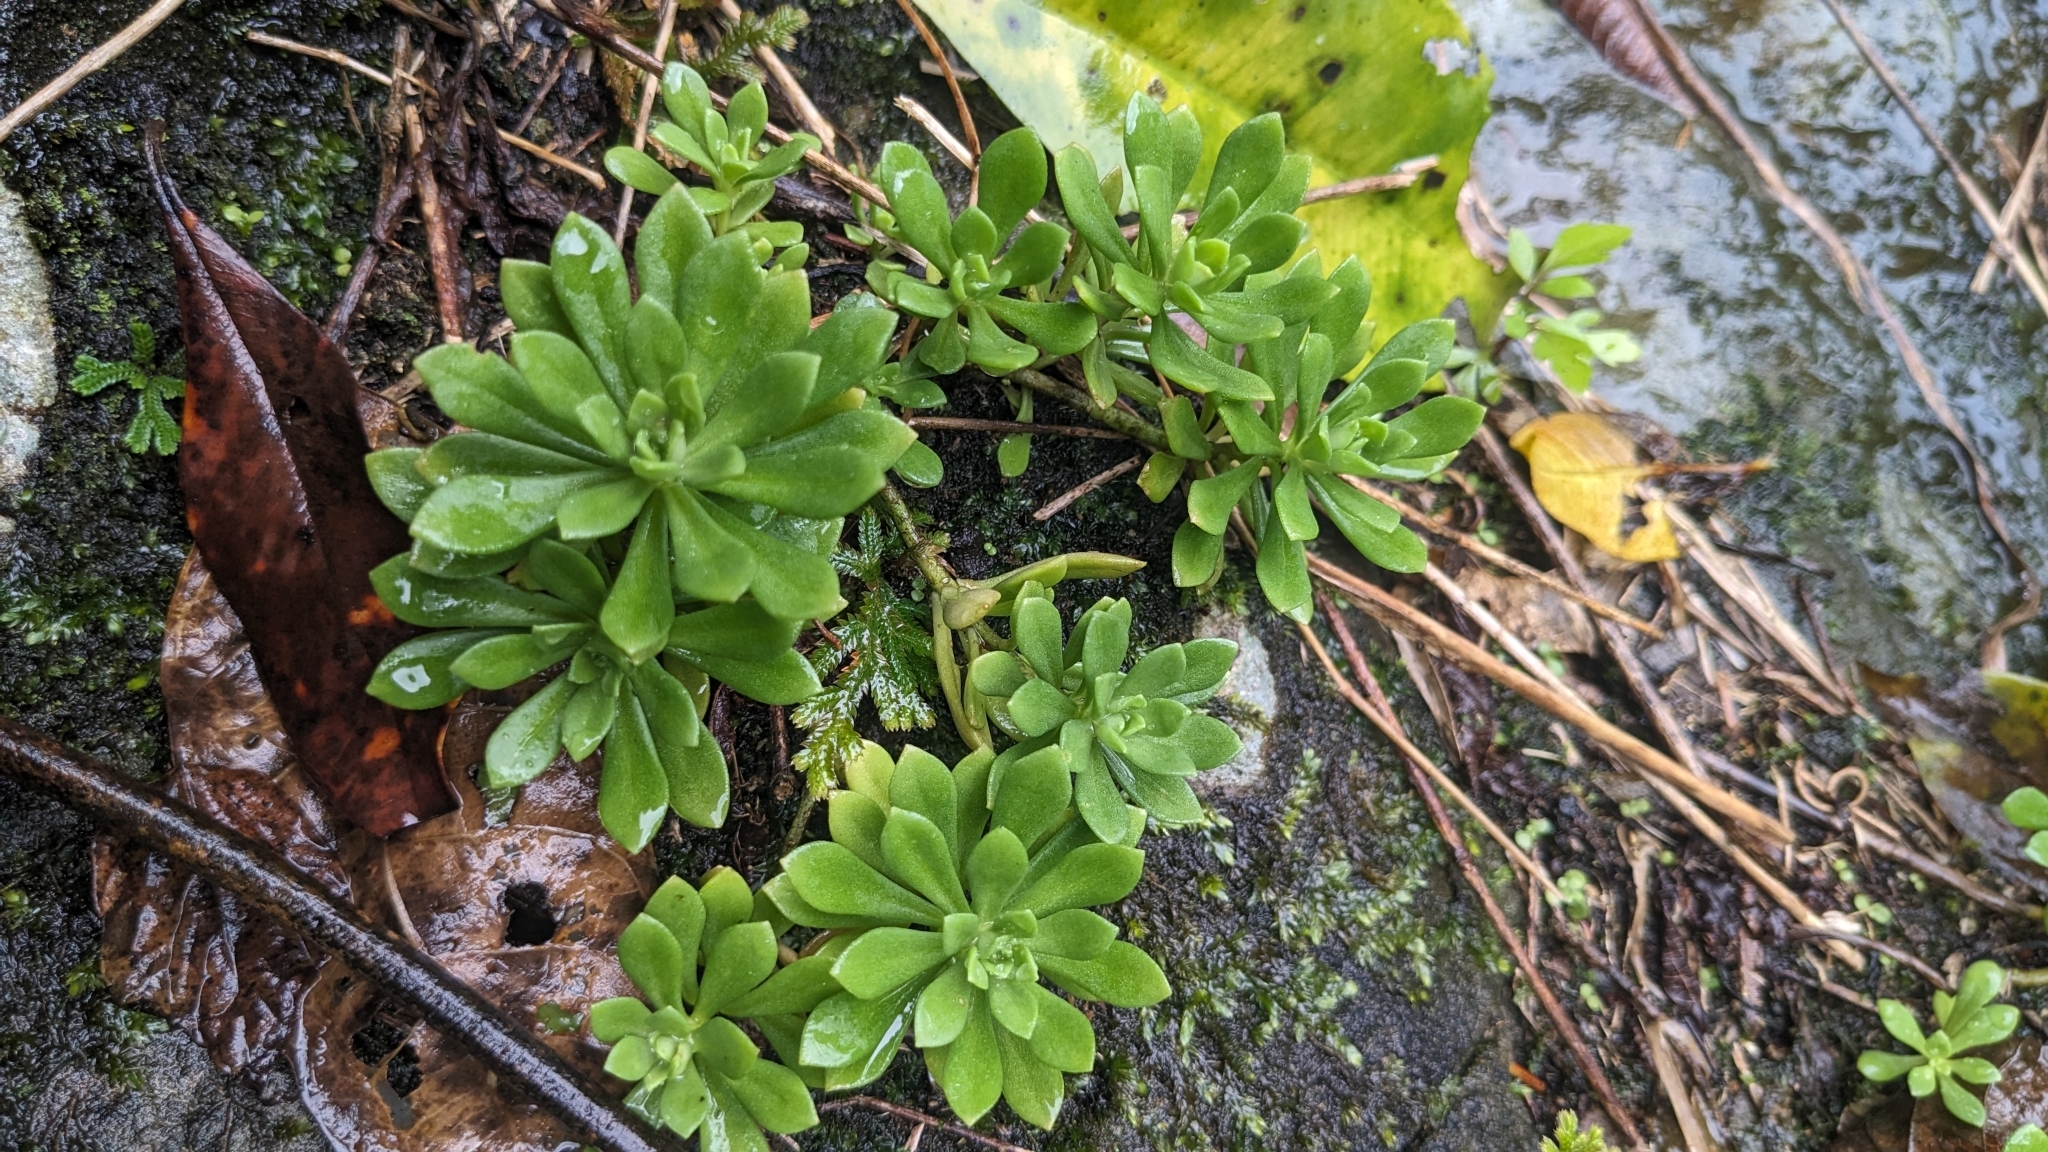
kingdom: Plantae
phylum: Tracheophyta
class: Magnoliopsida
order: Saxifragales
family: Crassulaceae
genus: Sedum
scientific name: Sedum sekiteiense
